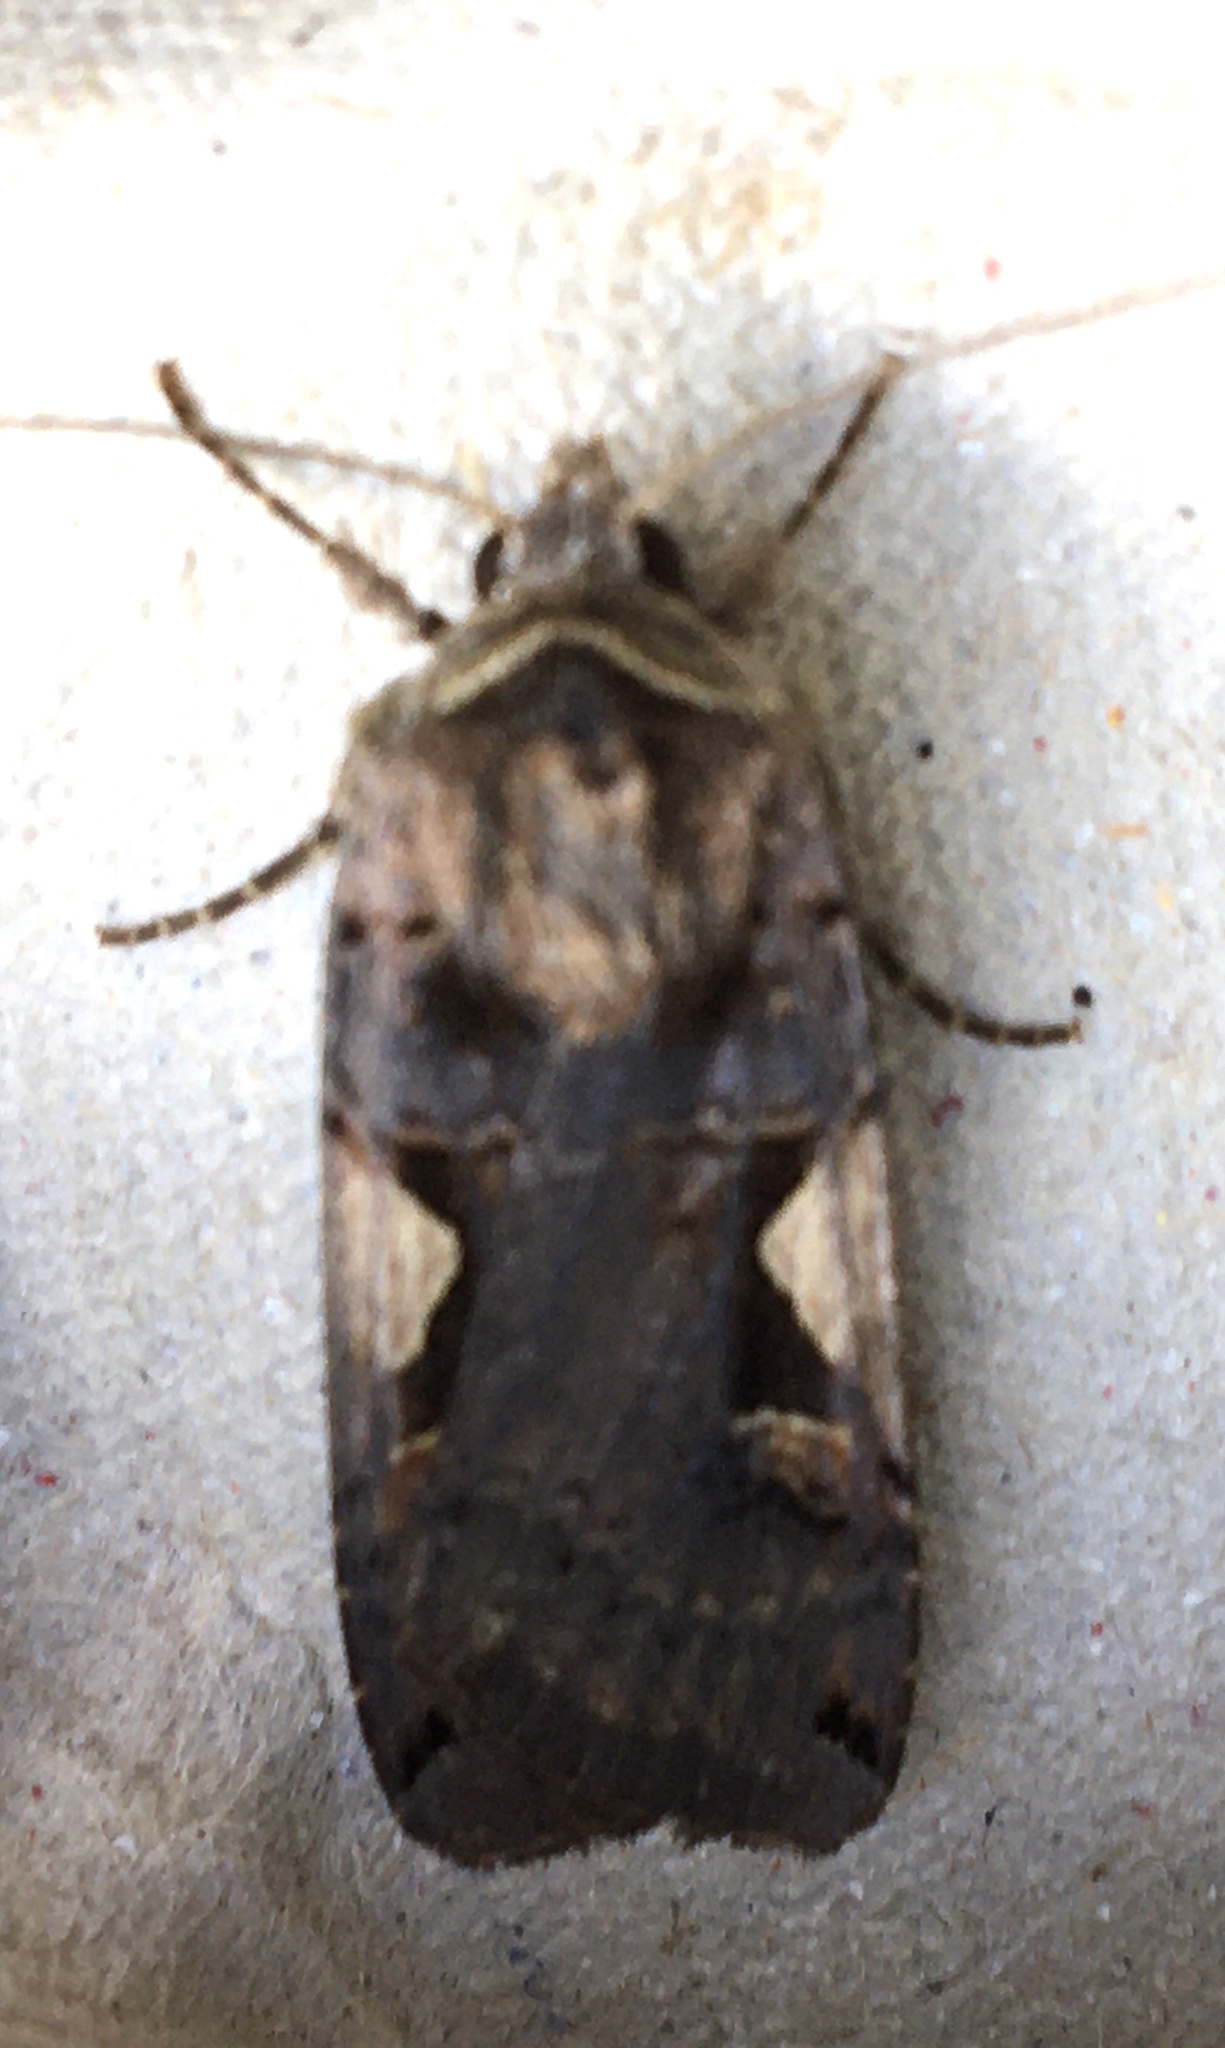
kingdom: Animalia
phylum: Arthropoda
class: Insecta
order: Lepidoptera
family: Noctuidae
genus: Xestia
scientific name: Xestia c-nigrum
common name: Setaceous hebrew character
